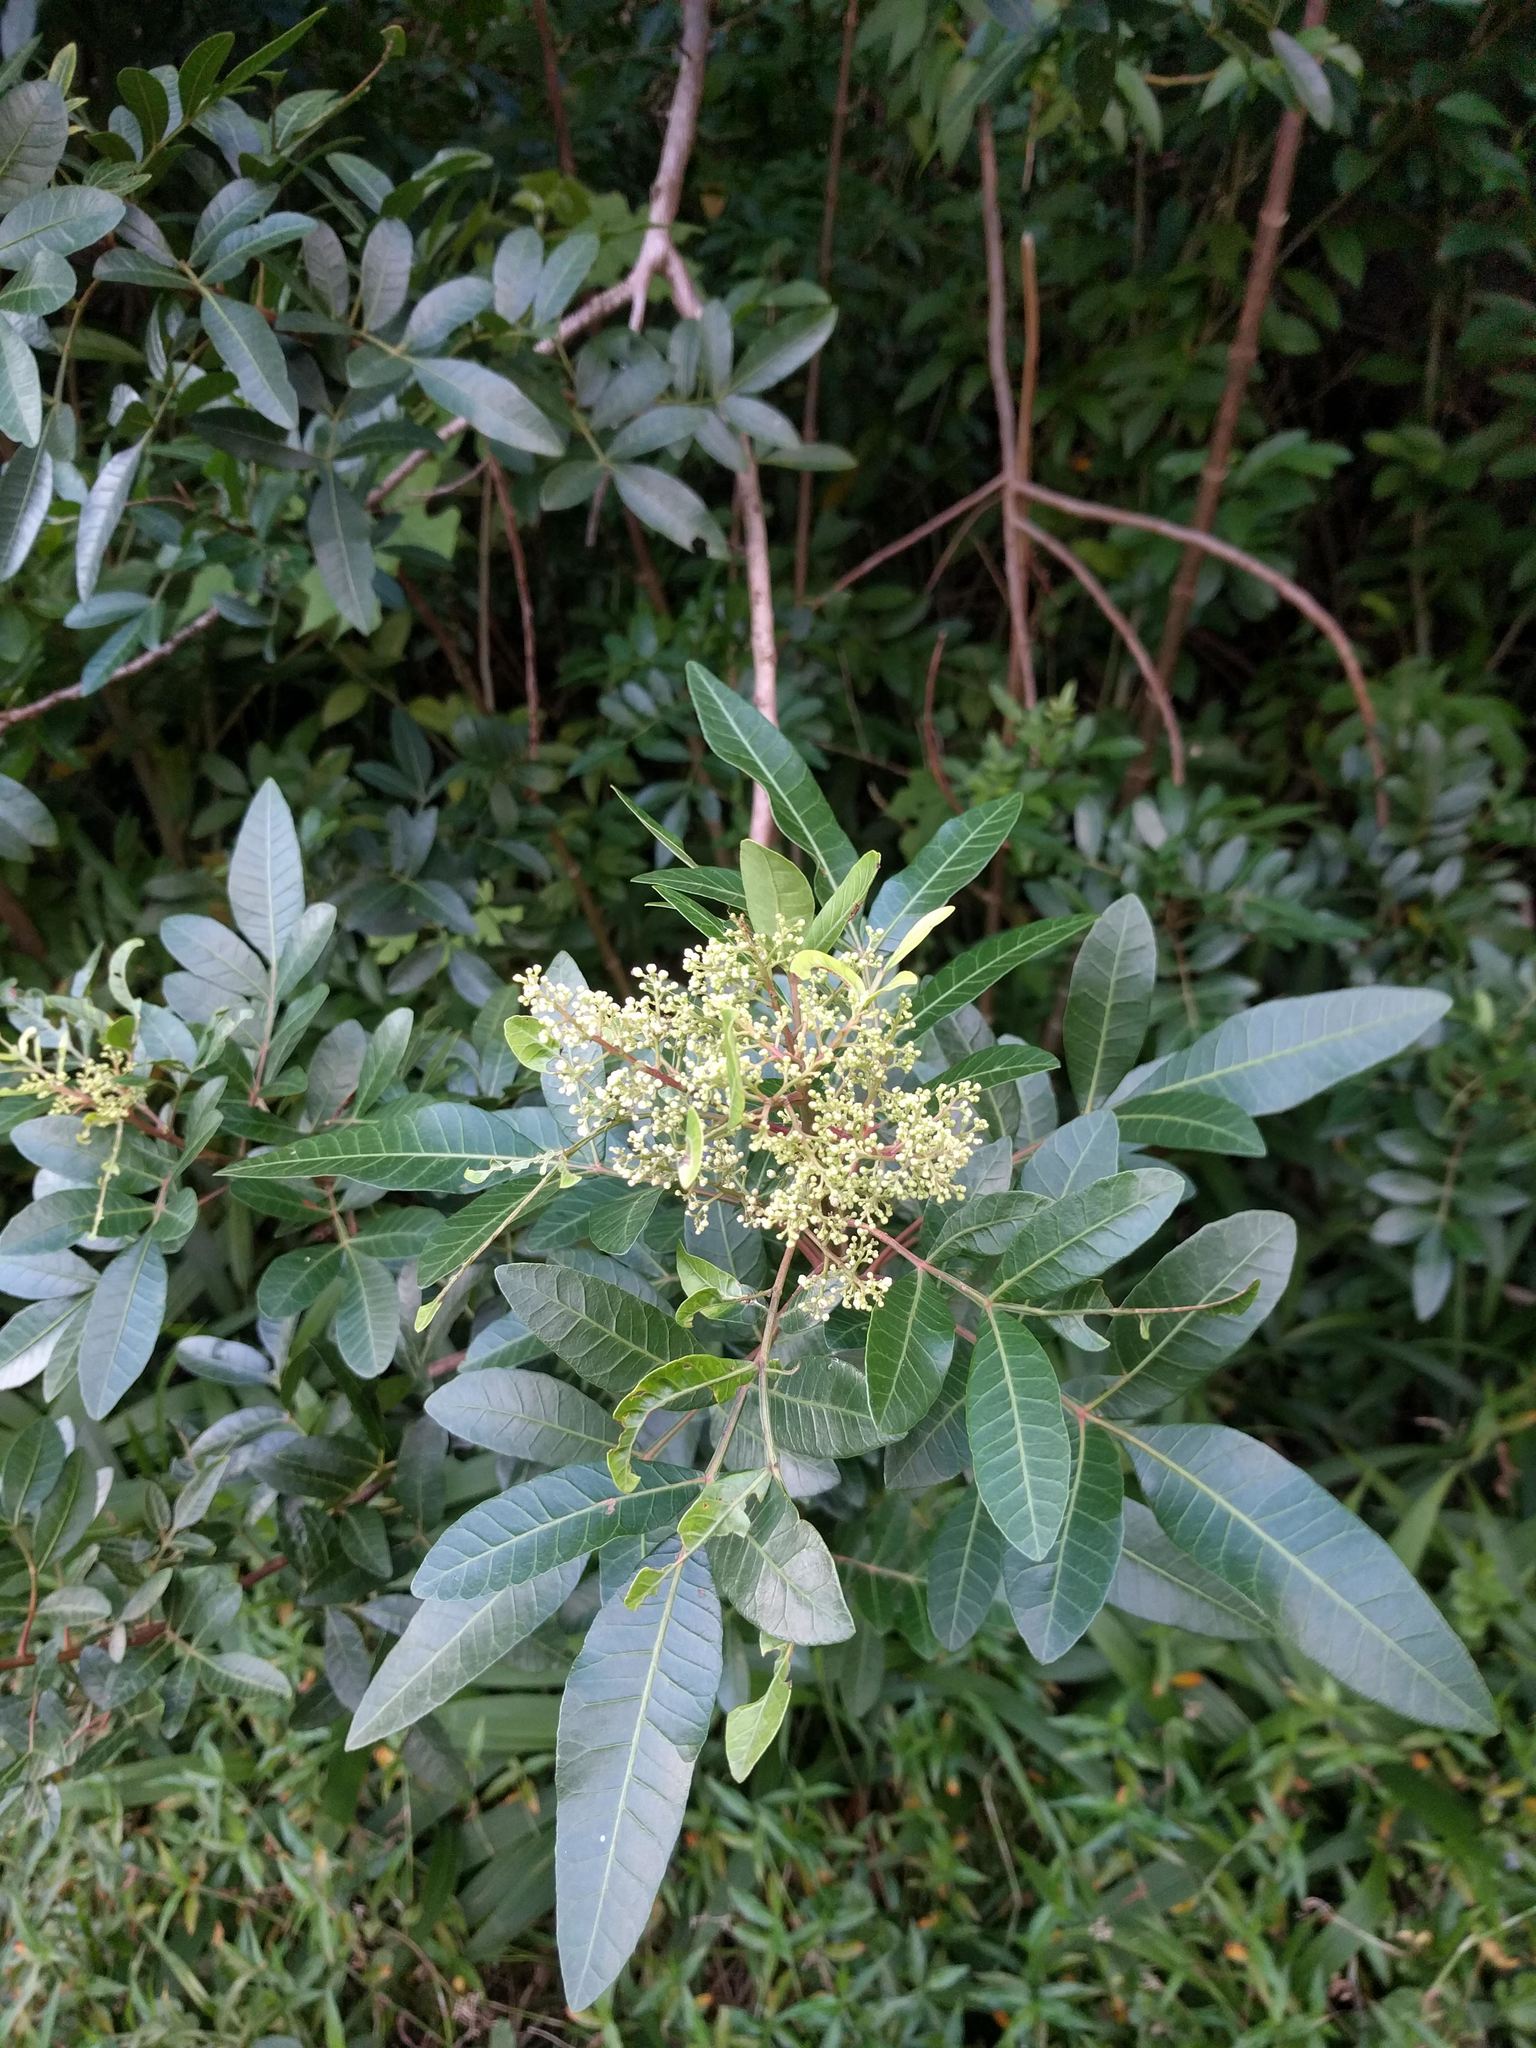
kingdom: Plantae
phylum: Tracheophyta
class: Magnoliopsida
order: Sapindales
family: Anacardiaceae
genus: Schinus
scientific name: Schinus terebinthifolia
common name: Brazilian peppertree
